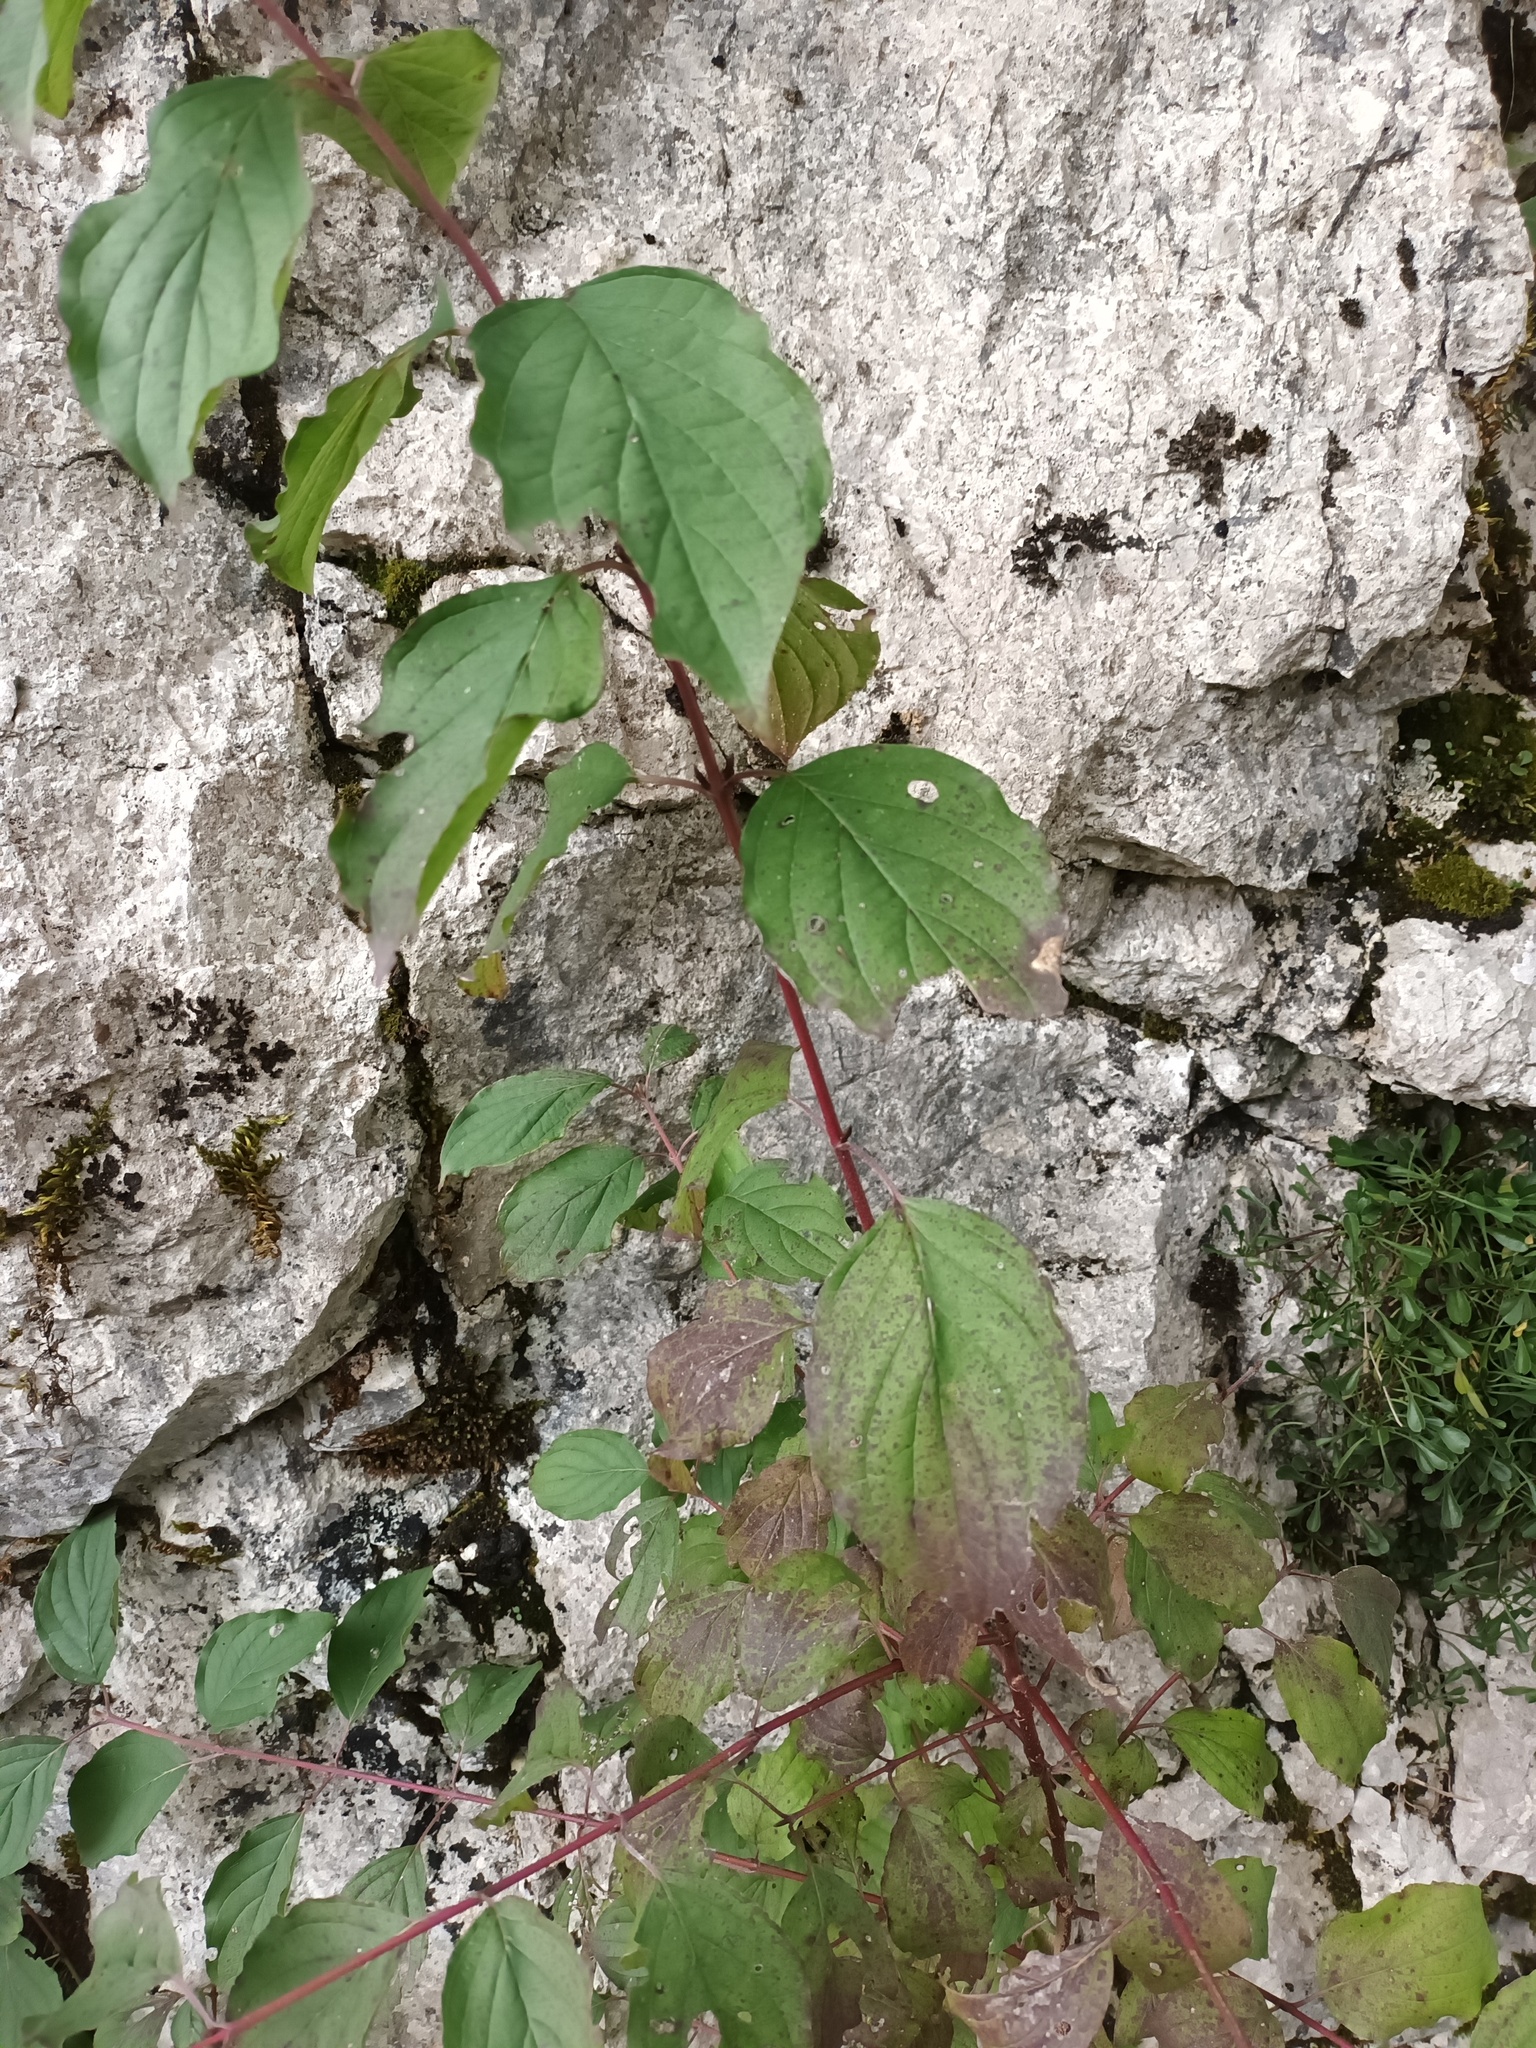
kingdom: Plantae
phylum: Tracheophyta
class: Magnoliopsida
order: Cornales
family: Cornaceae
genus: Cornus
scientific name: Cornus sanguinea
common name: Dogwood
